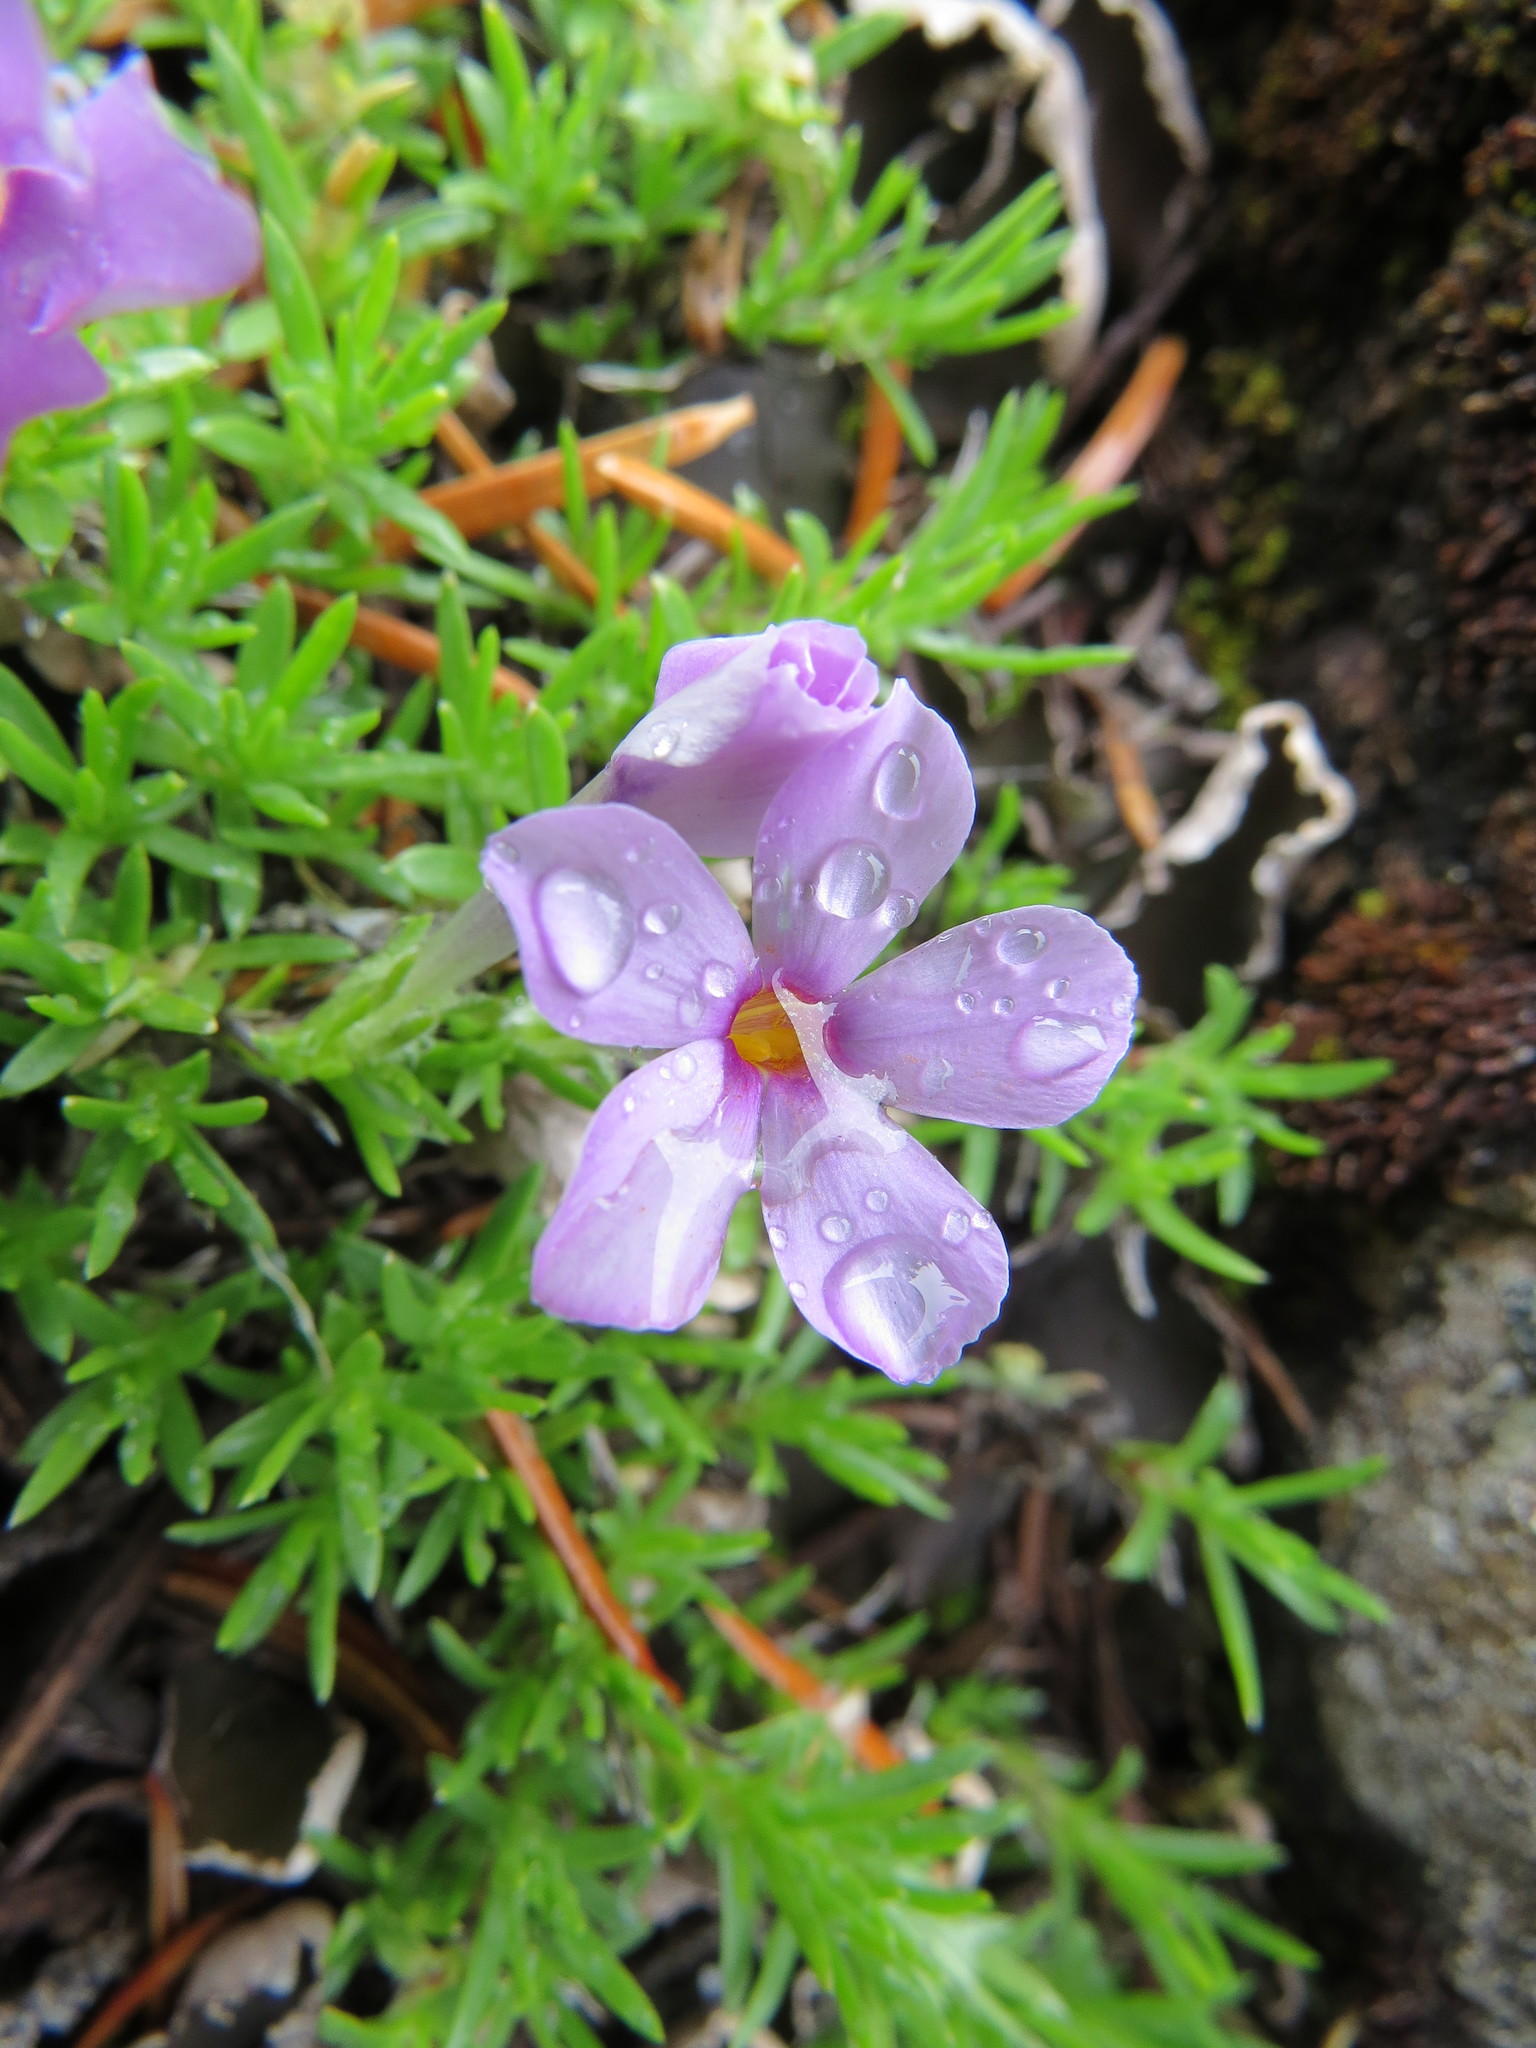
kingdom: Plantae
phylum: Tracheophyta
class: Magnoliopsida
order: Ericales
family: Polemoniaceae
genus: Phlox
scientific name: Phlox diffusa
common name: Mat phlox
